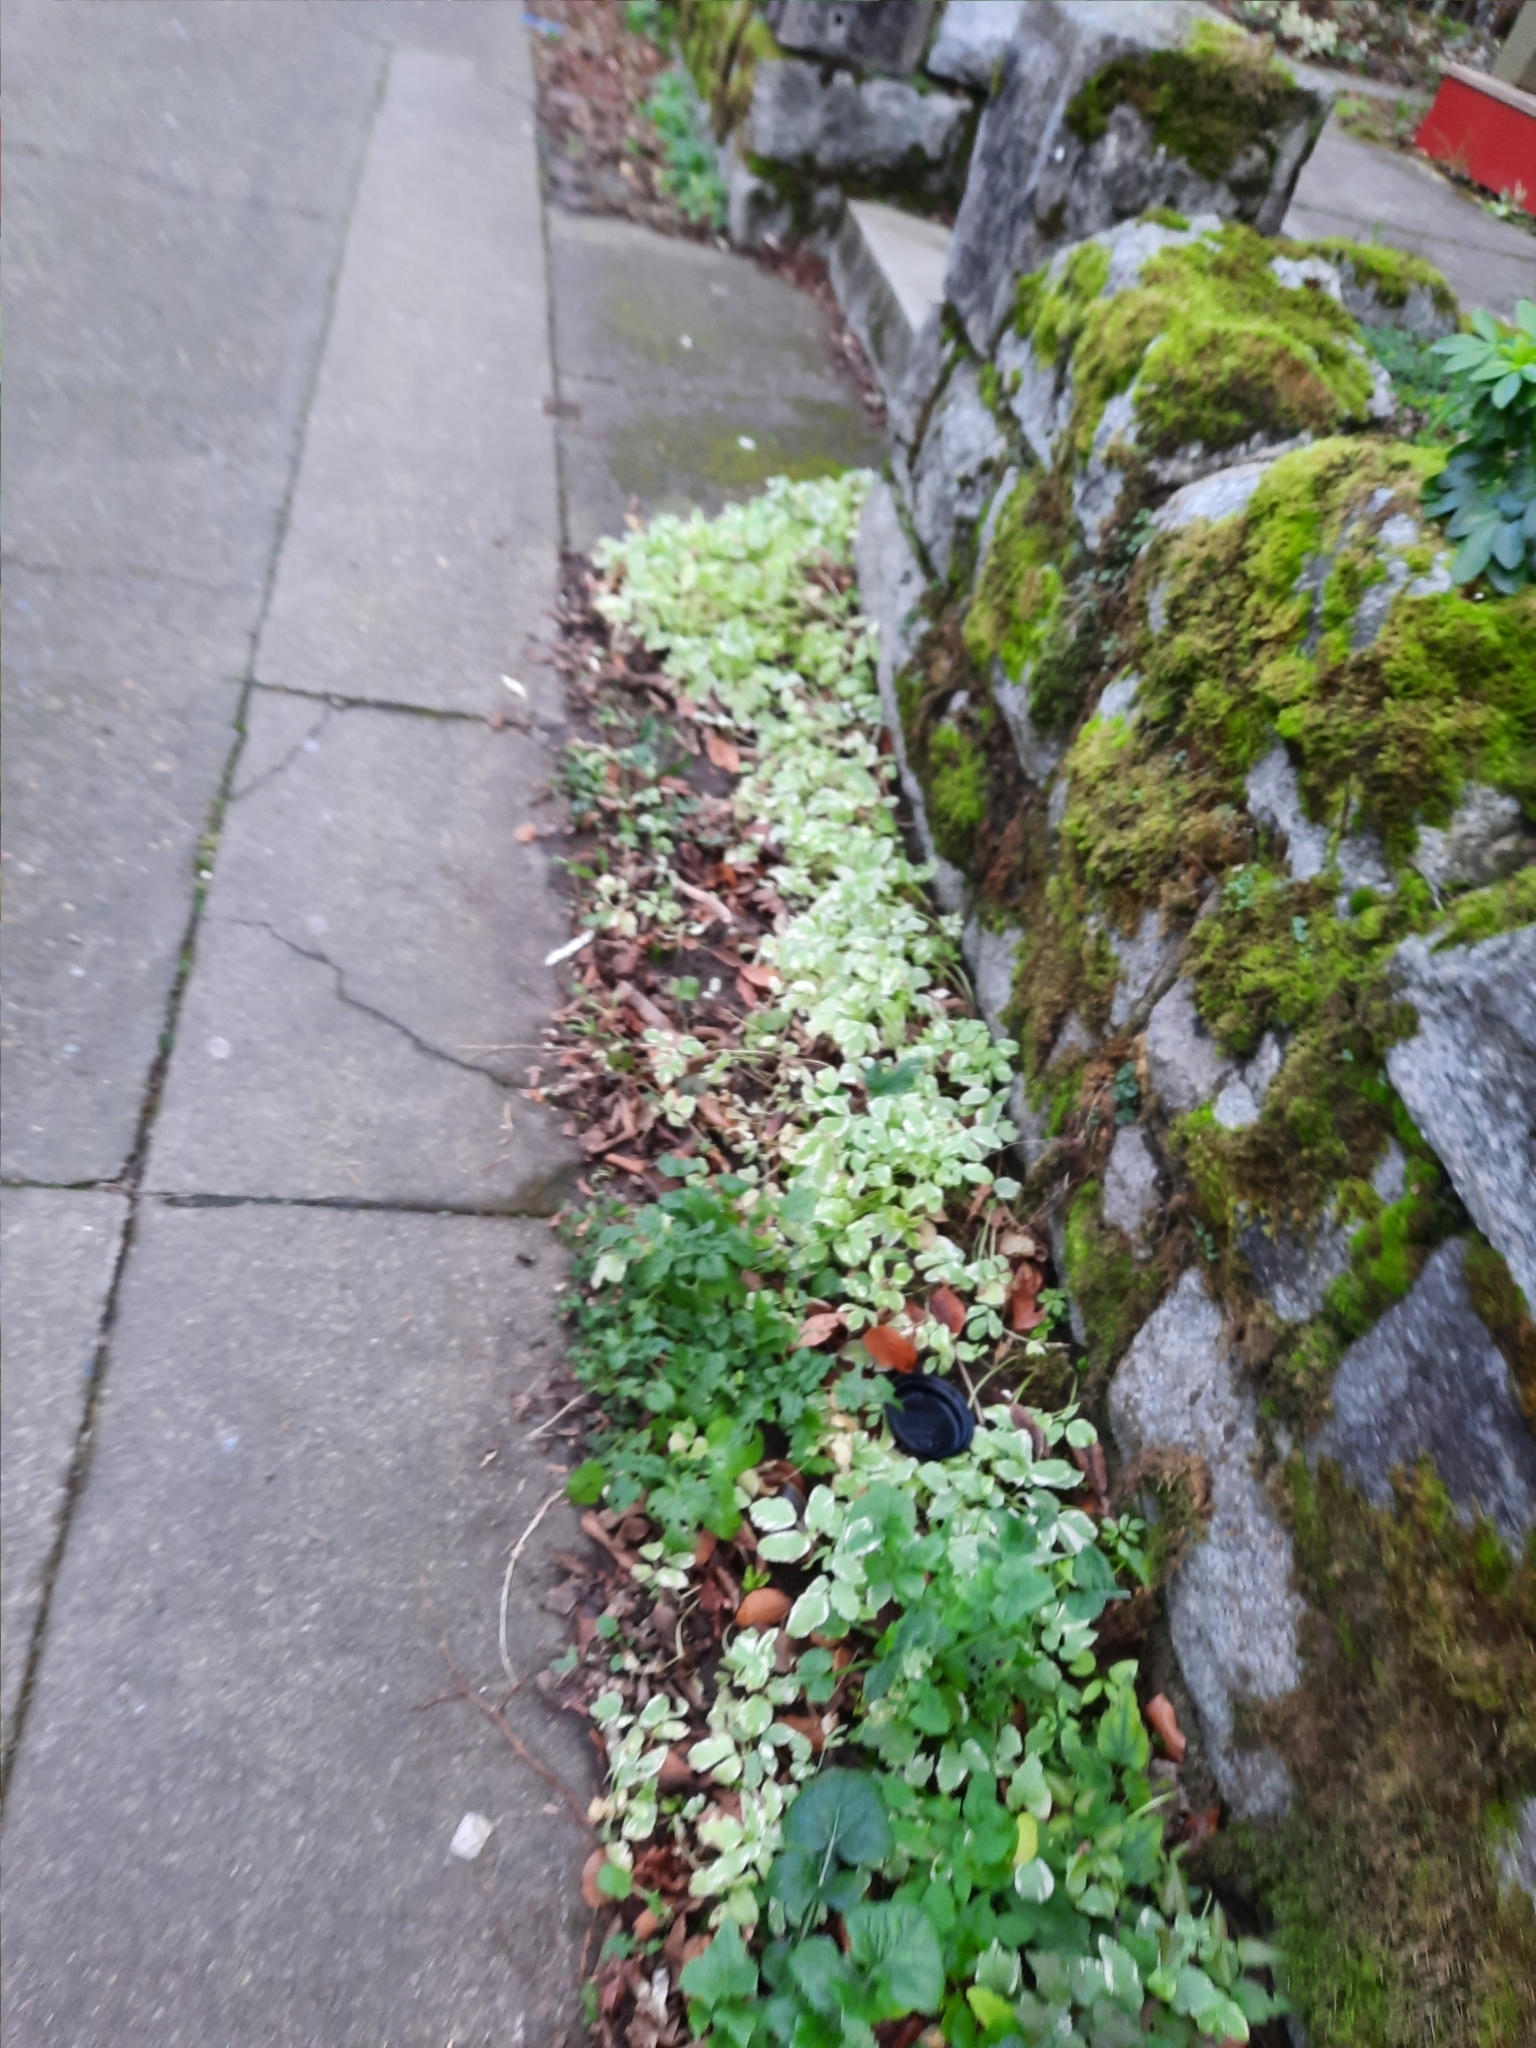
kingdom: Plantae
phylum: Tracheophyta
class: Magnoliopsida
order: Apiales
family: Apiaceae
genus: Aegopodium
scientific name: Aegopodium podagraria
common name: Ground-elder
